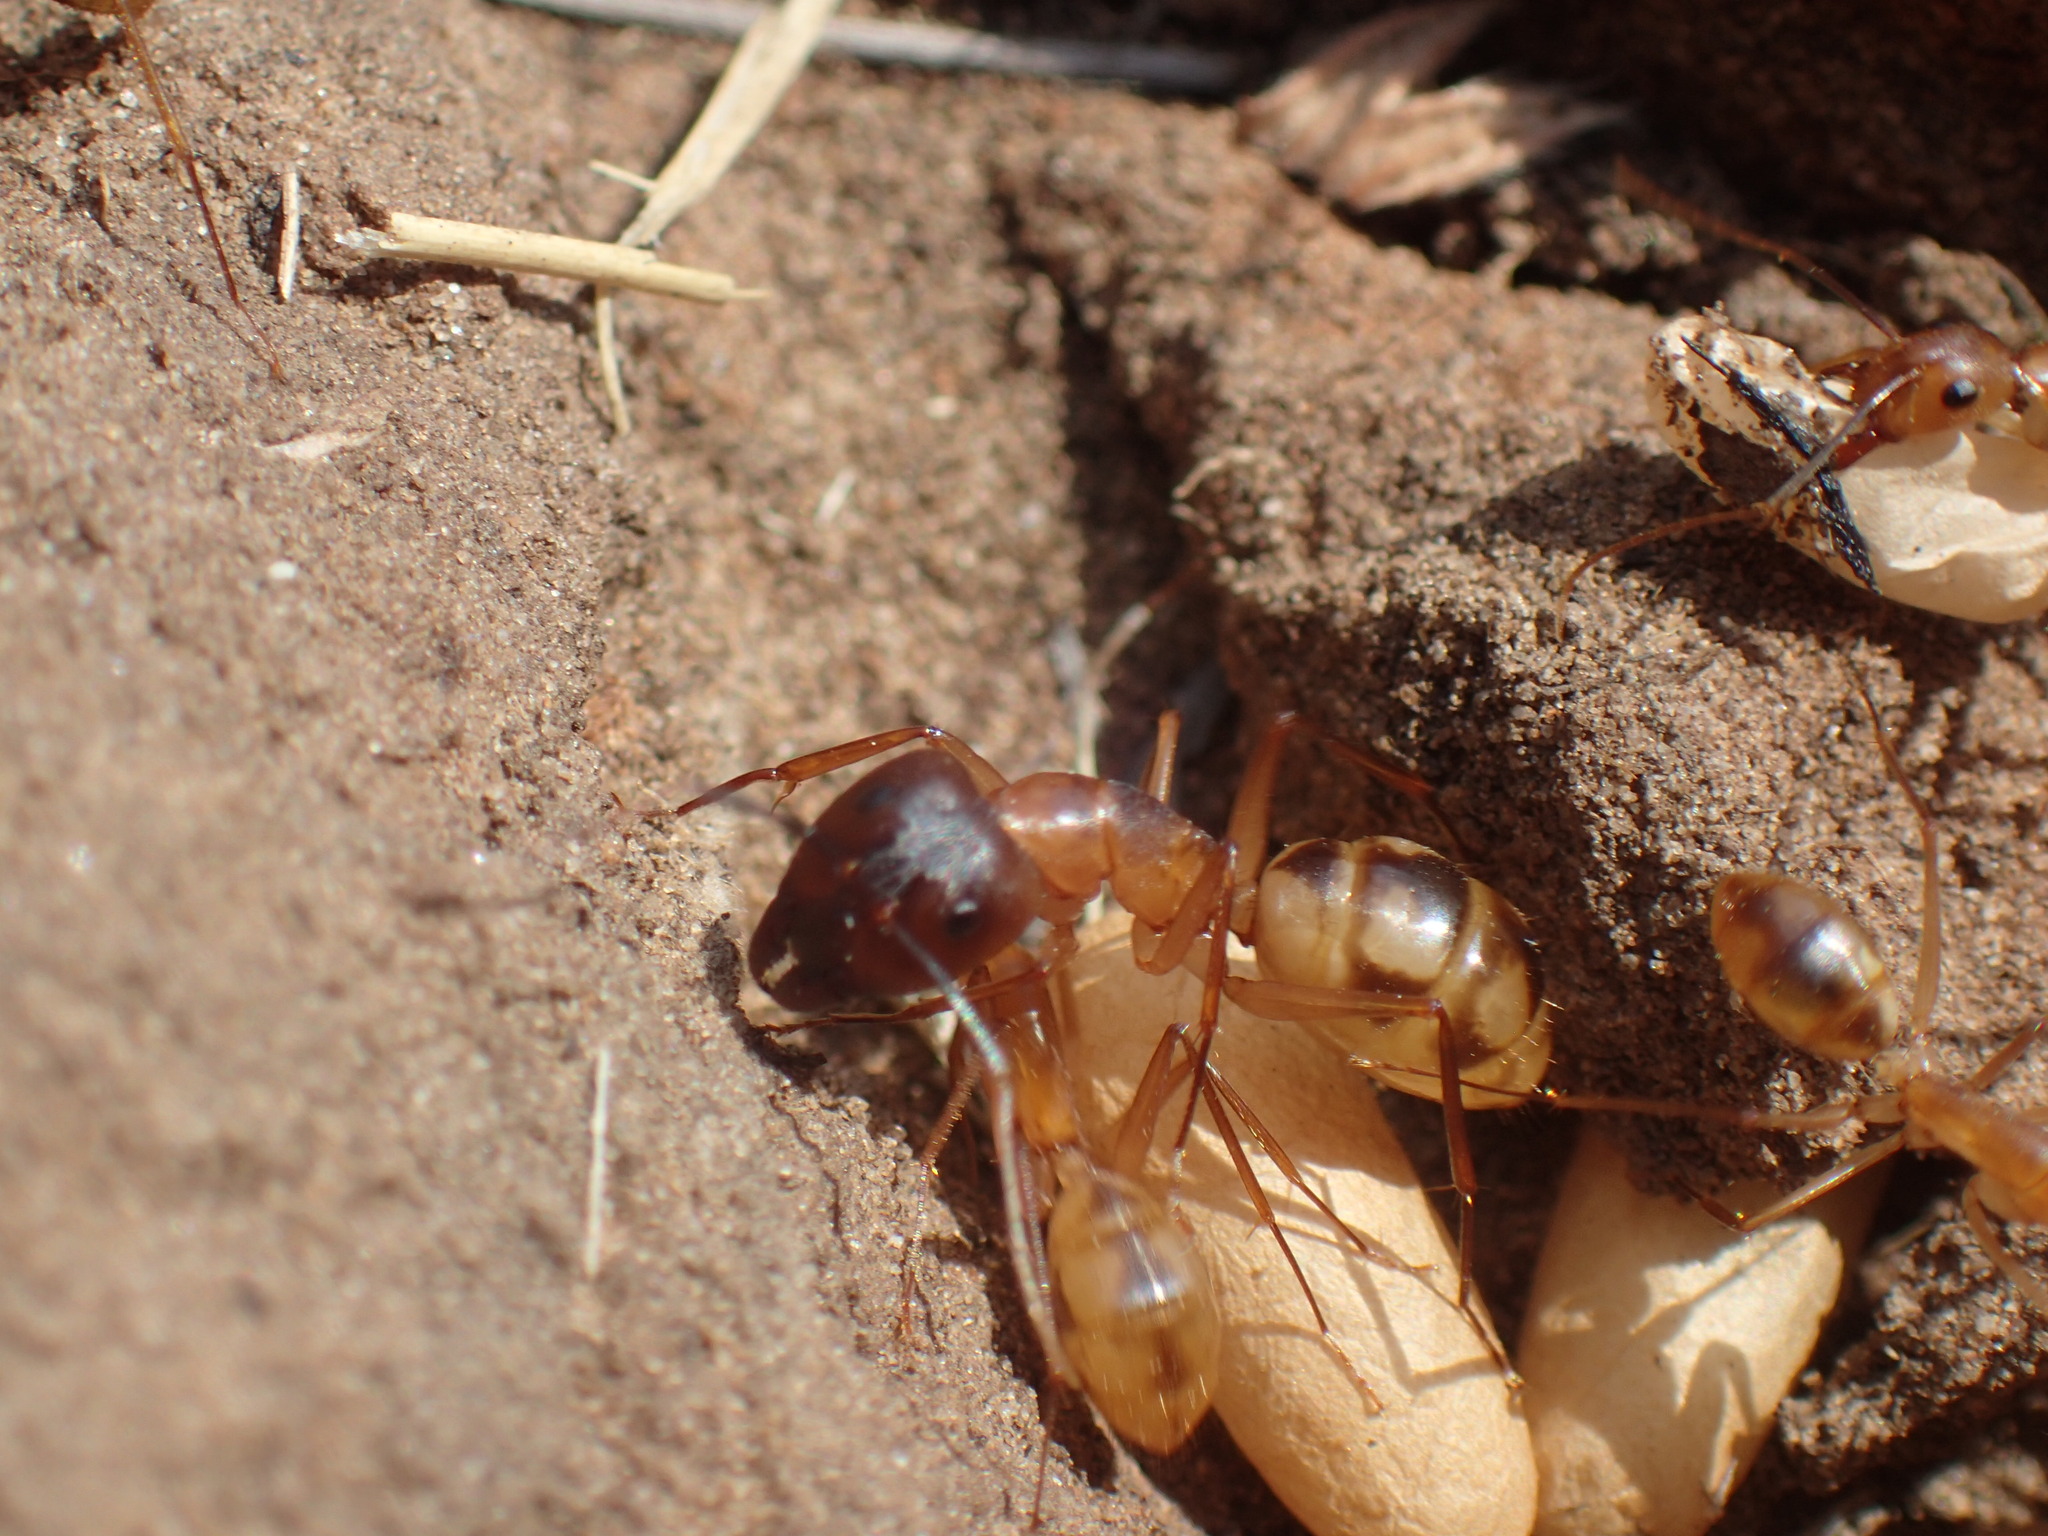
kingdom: Animalia
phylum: Arthropoda
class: Insecta
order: Hymenoptera
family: Formicidae
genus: Camponotus
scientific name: Camponotus maculatus
